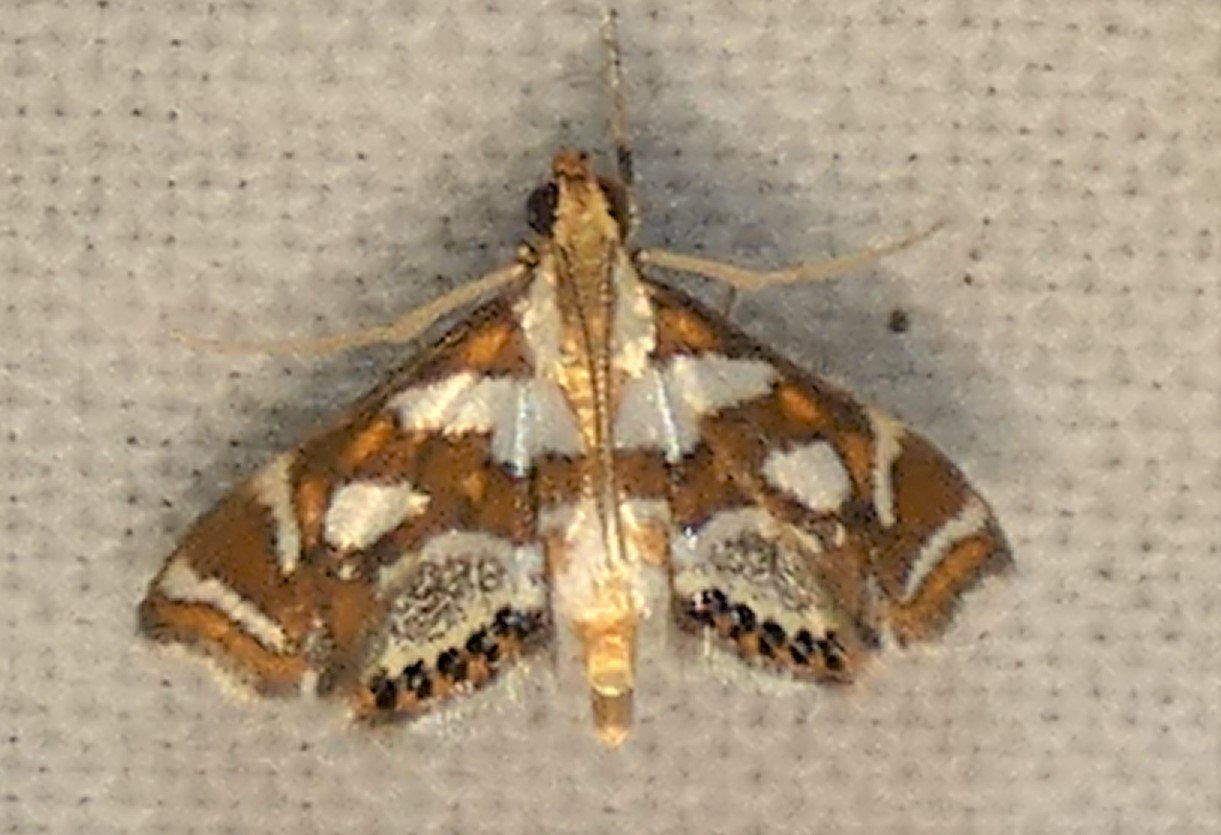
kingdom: Animalia
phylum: Arthropoda
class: Insecta
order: Lepidoptera
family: Crambidae
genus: Chrysendeton
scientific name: Chrysendeton medicinalis
